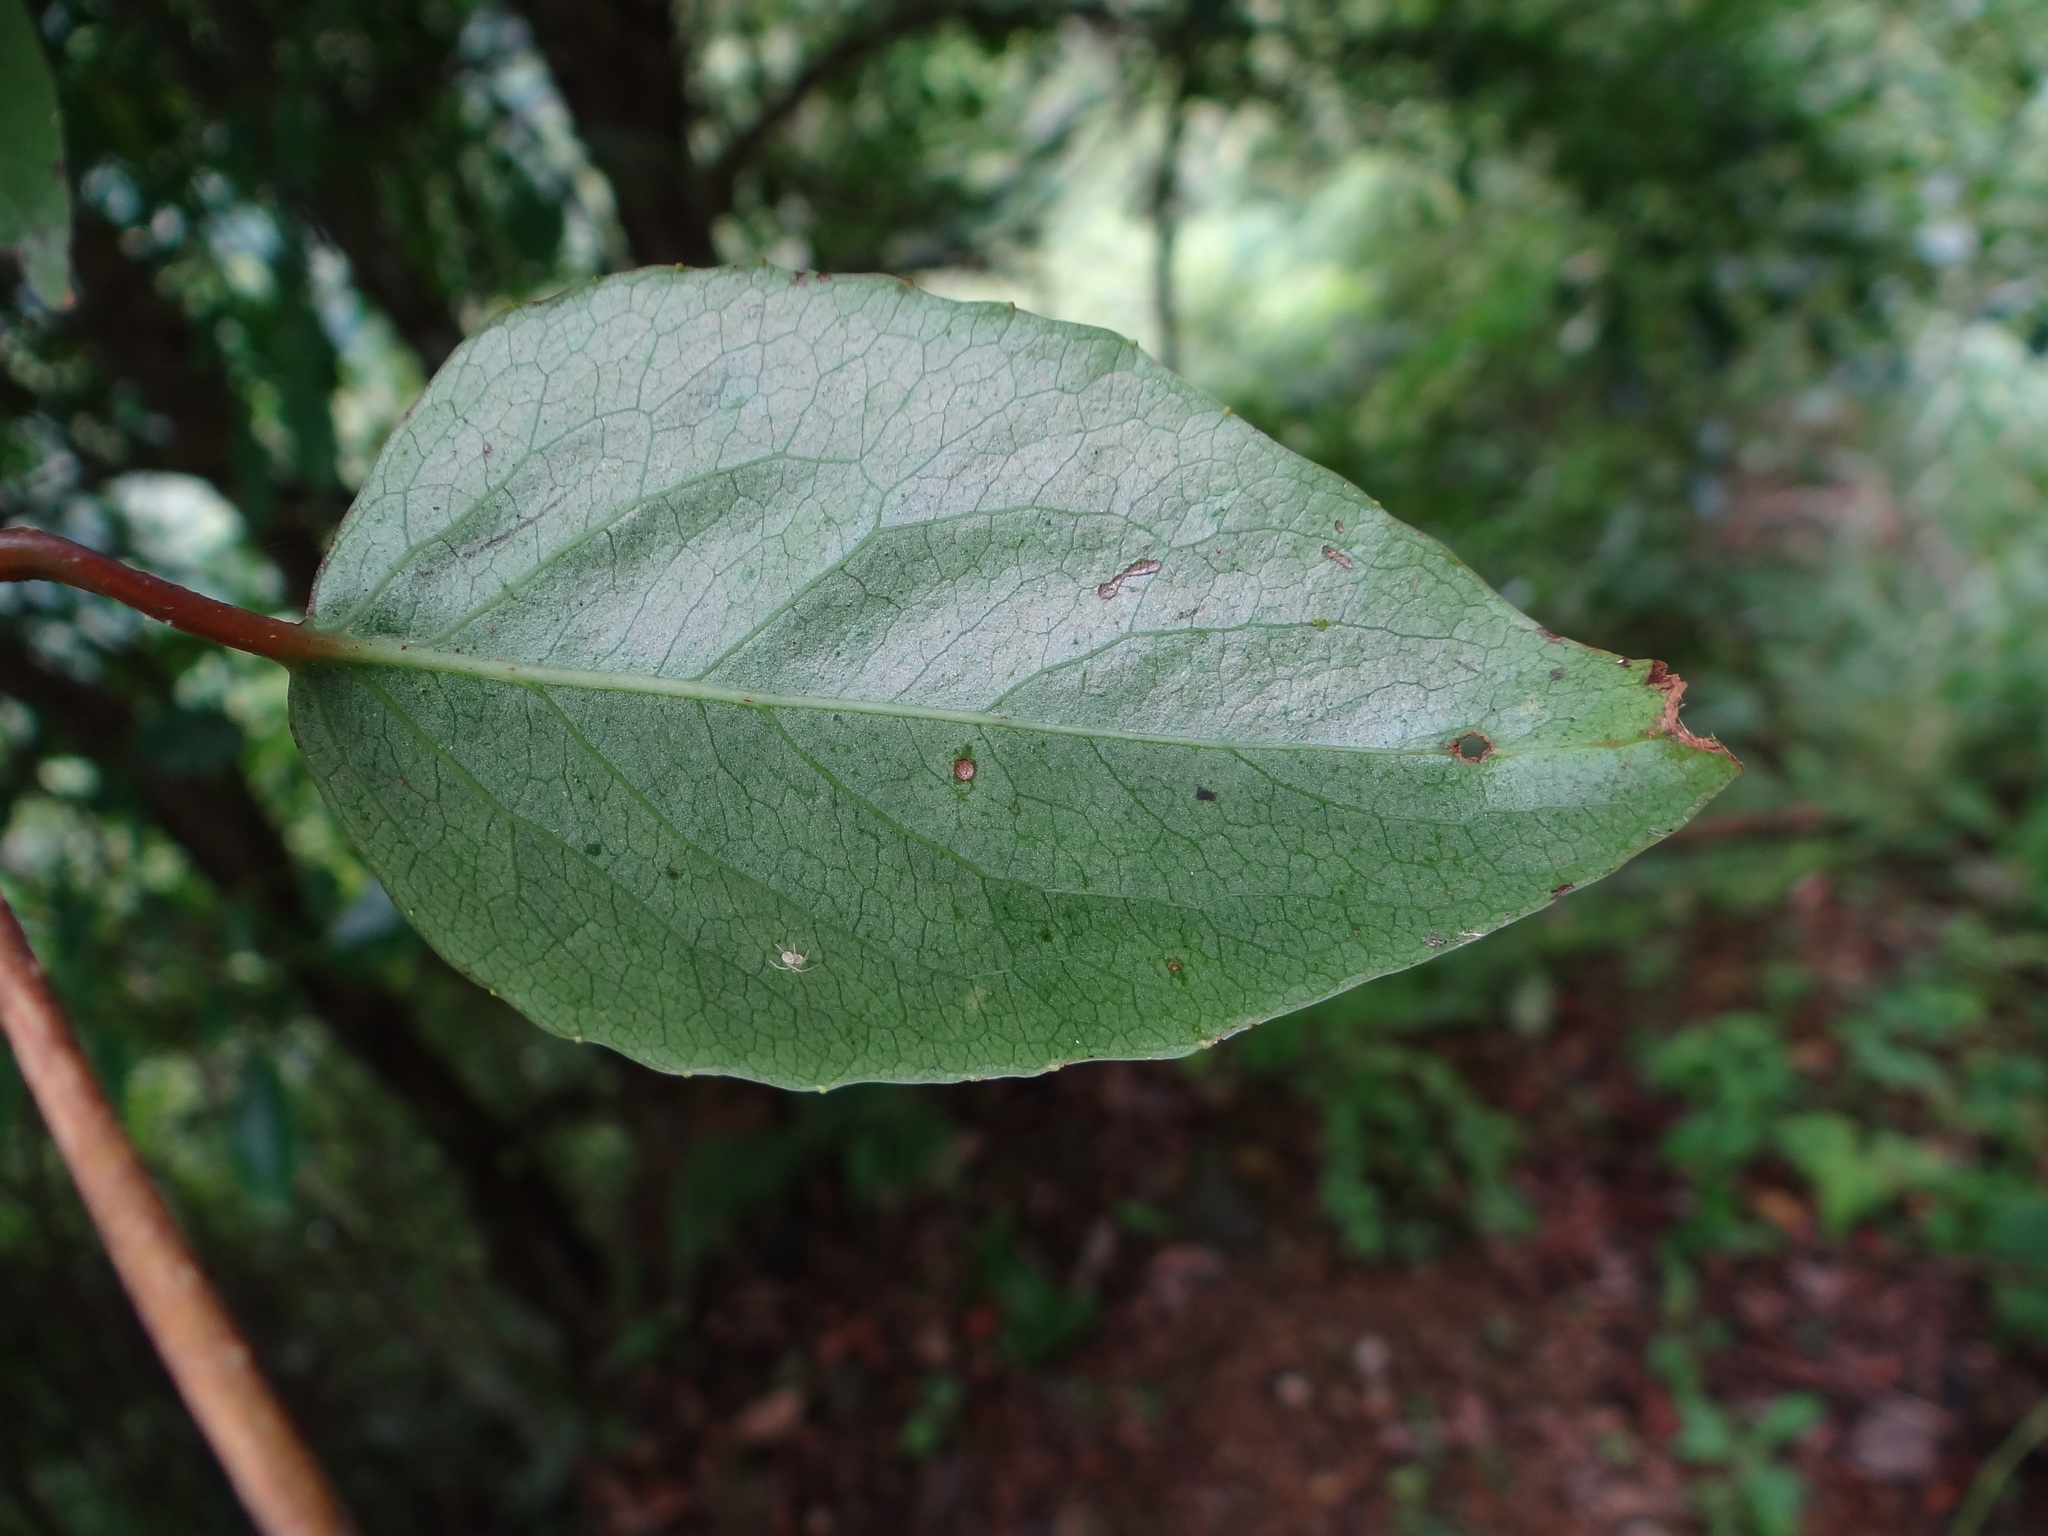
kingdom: Plantae
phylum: Tracheophyta
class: Magnoliopsida
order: Austrobaileyales
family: Schisandraceae
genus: Schisandra
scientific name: Schisandra arisanensis
